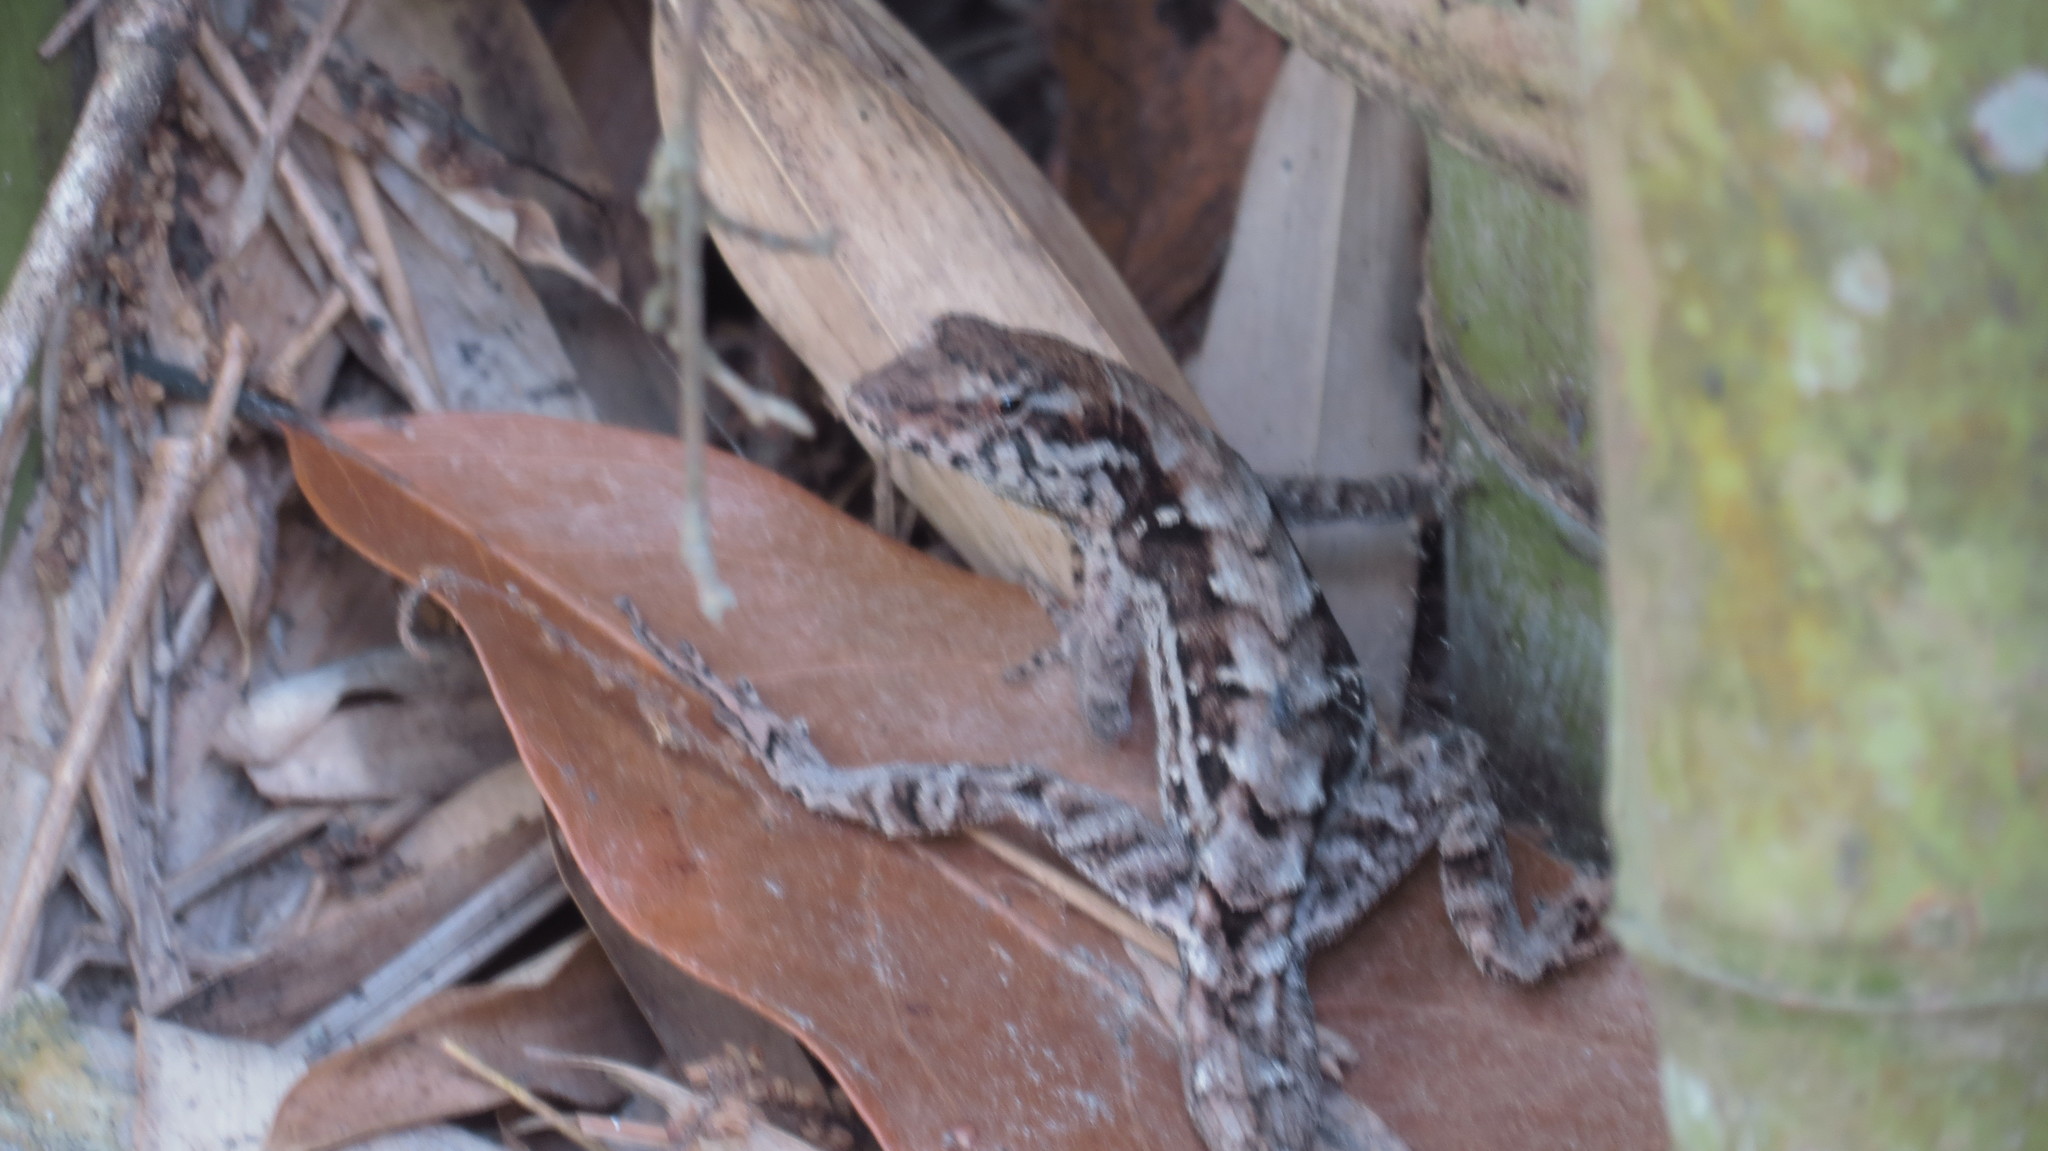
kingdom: Animalia
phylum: Chordata
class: Squamata
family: Dactyloidae
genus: Anolis
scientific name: Anolis mccraniei
